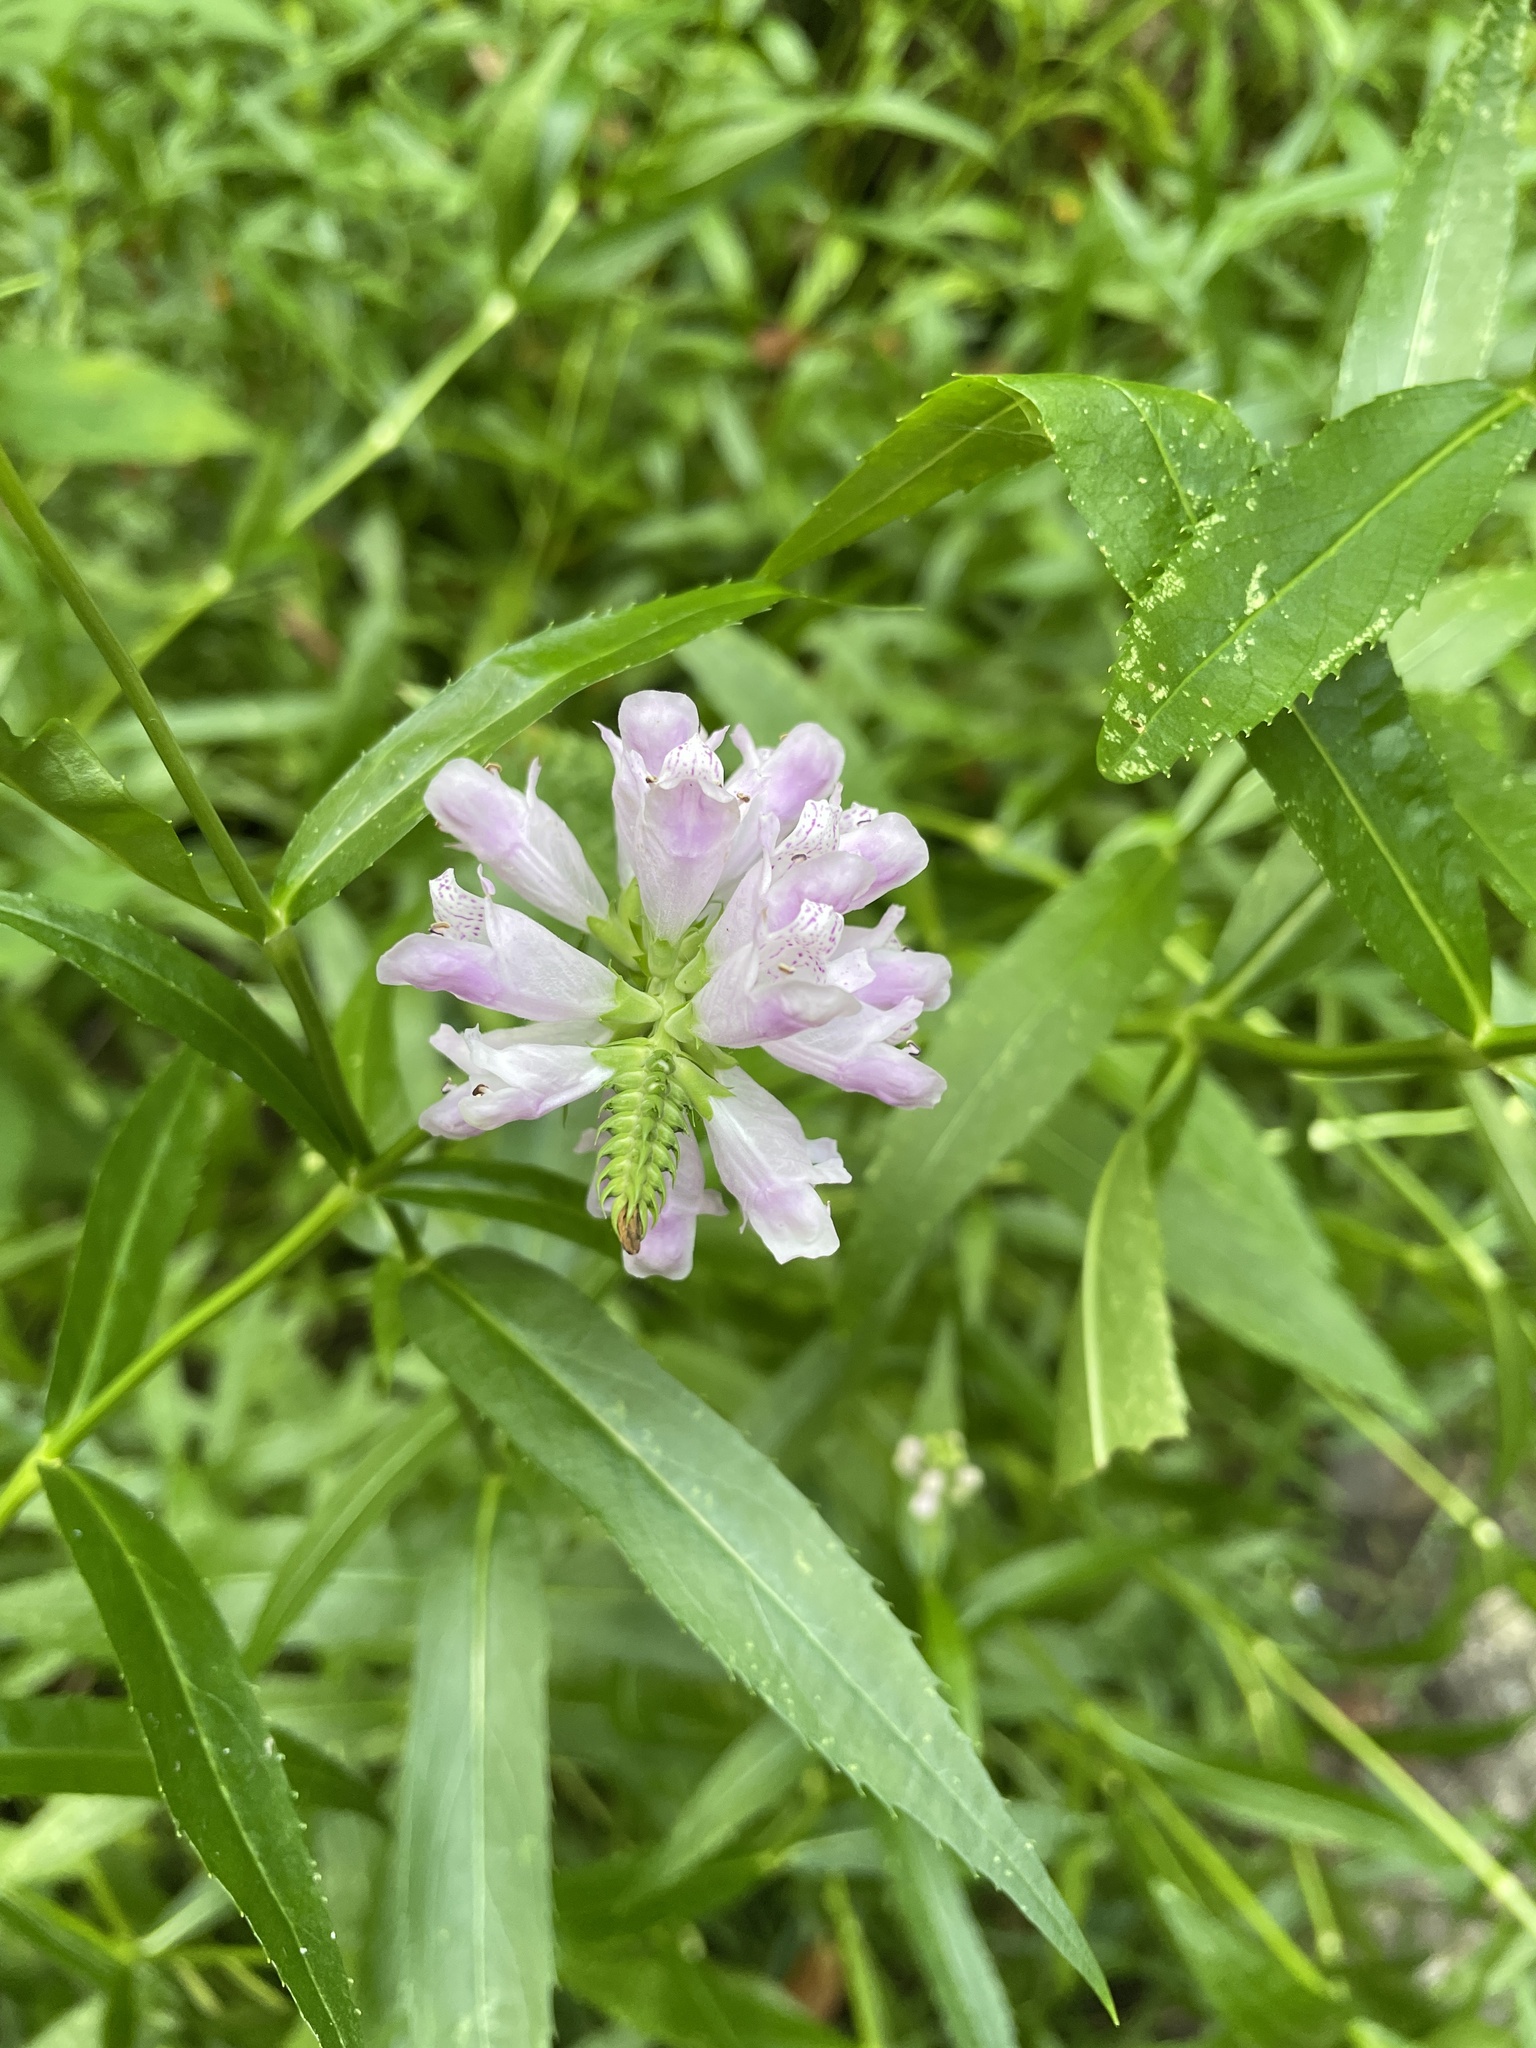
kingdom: Plantae
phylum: Tracheophyta
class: Magnoliopsida
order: Lamiales
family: Lamiaceae
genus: Physostegia
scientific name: Physostegia virginiana
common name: Obedient-plant
